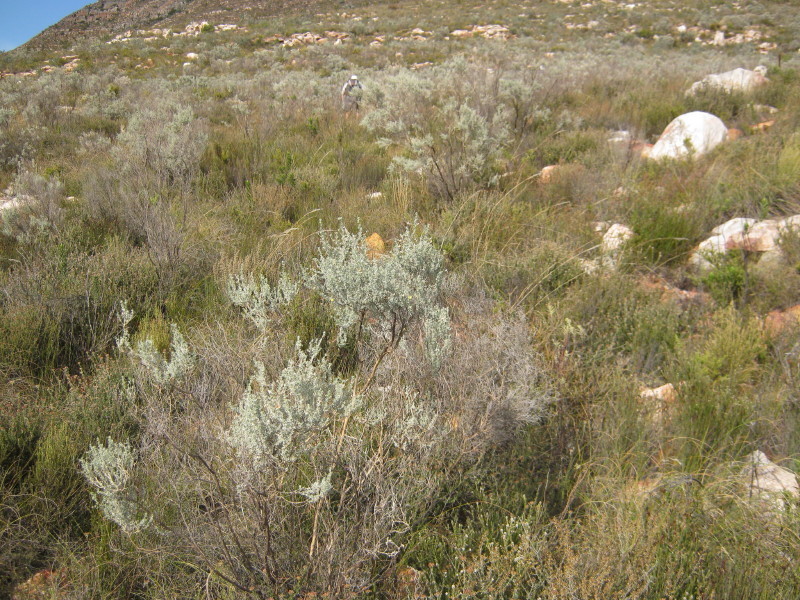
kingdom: Plantae
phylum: Tracheophyta
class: Magnoliopsida
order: Fabales
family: Fabaceae
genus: Aspalathus
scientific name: Aspalathus pedunculata
